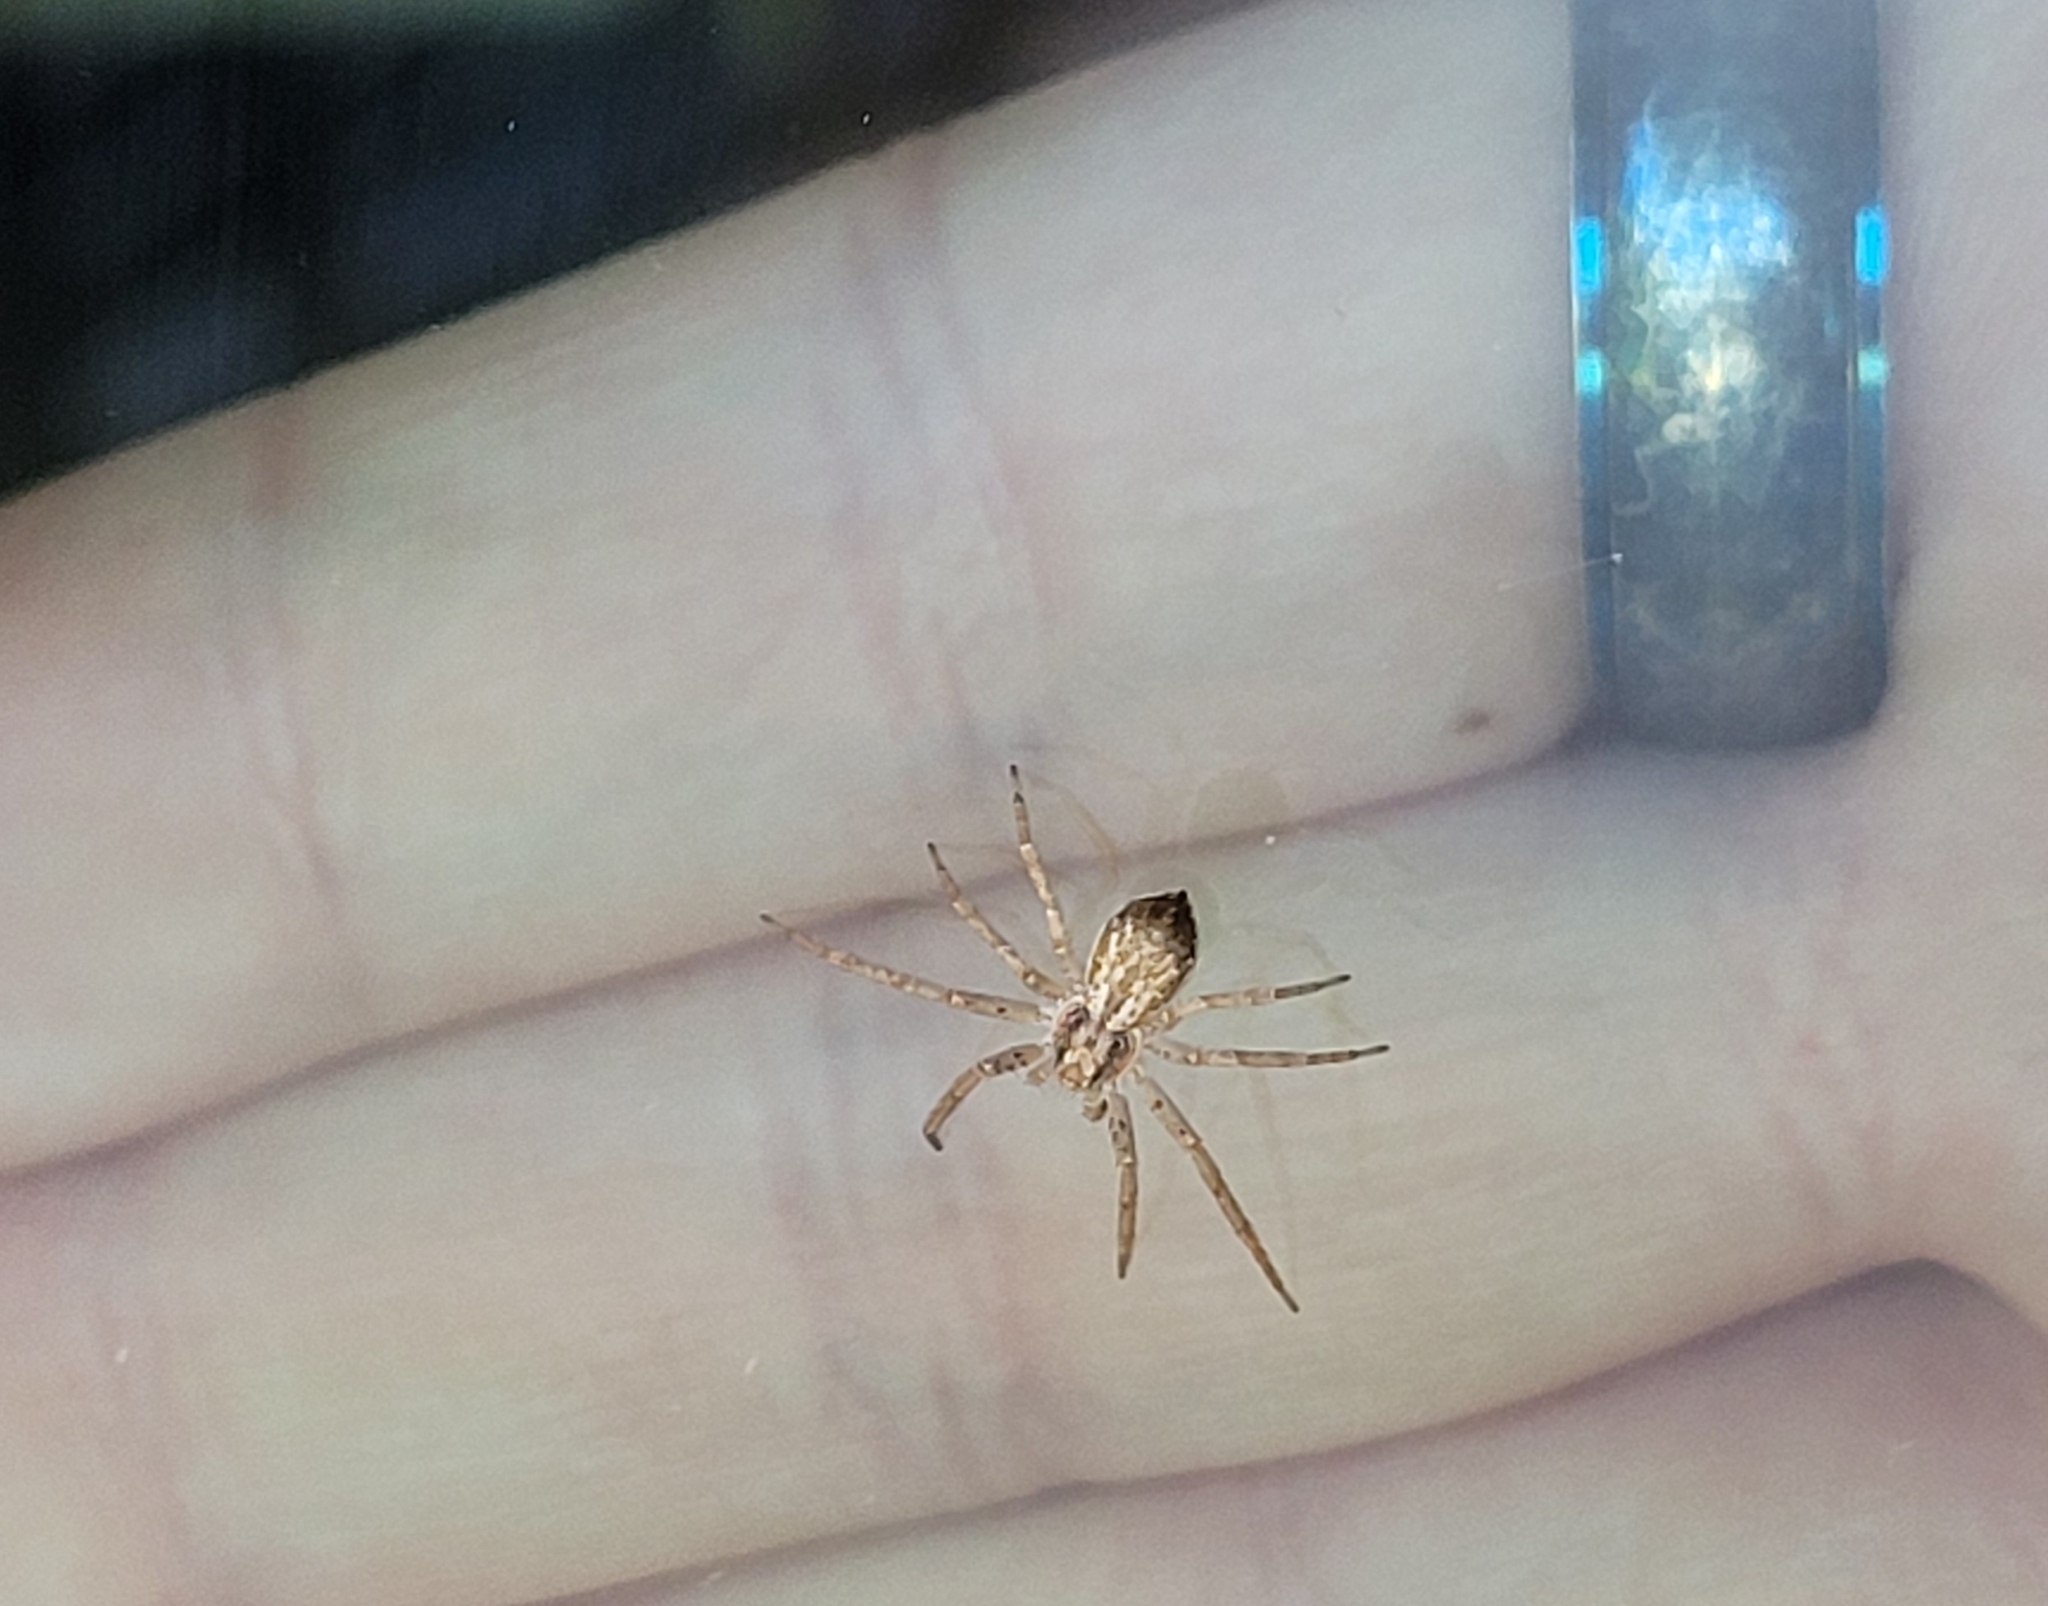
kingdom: Animalia
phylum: Arthropoda
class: Arachnida
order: Araneae
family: Philodromidae
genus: Philodromus
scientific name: Philodromus dispar
